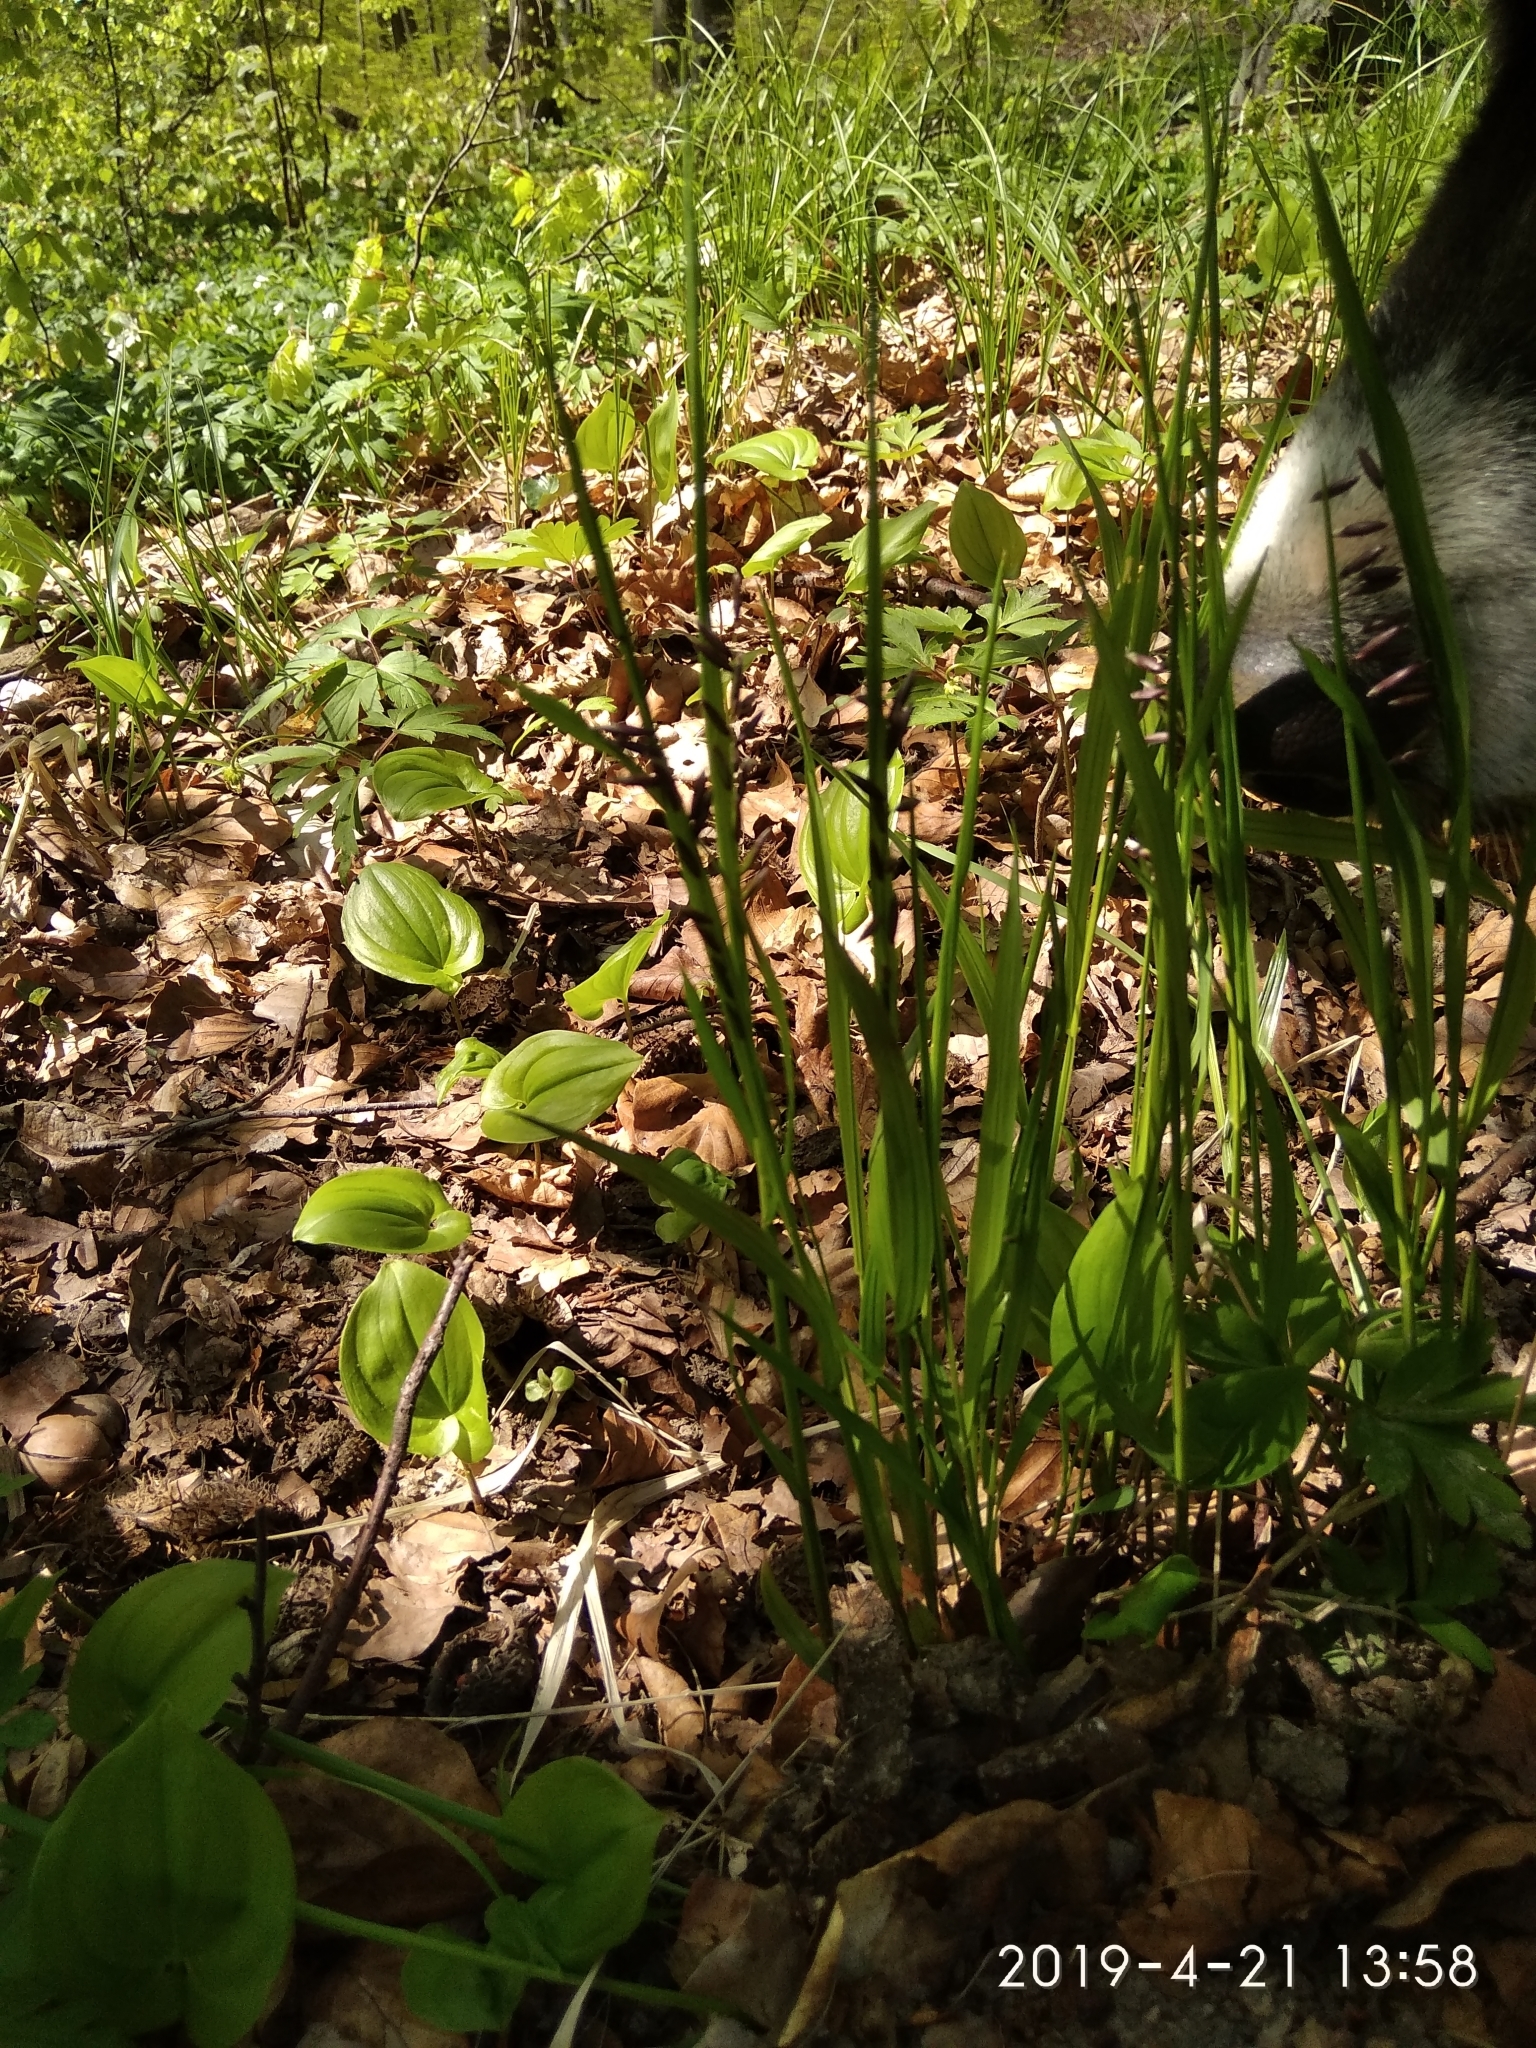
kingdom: Plantae
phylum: Tracheophyta
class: Liliopsida
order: Poales
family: Poaceae
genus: Melica
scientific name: Melica nutans
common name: Mountain melick
